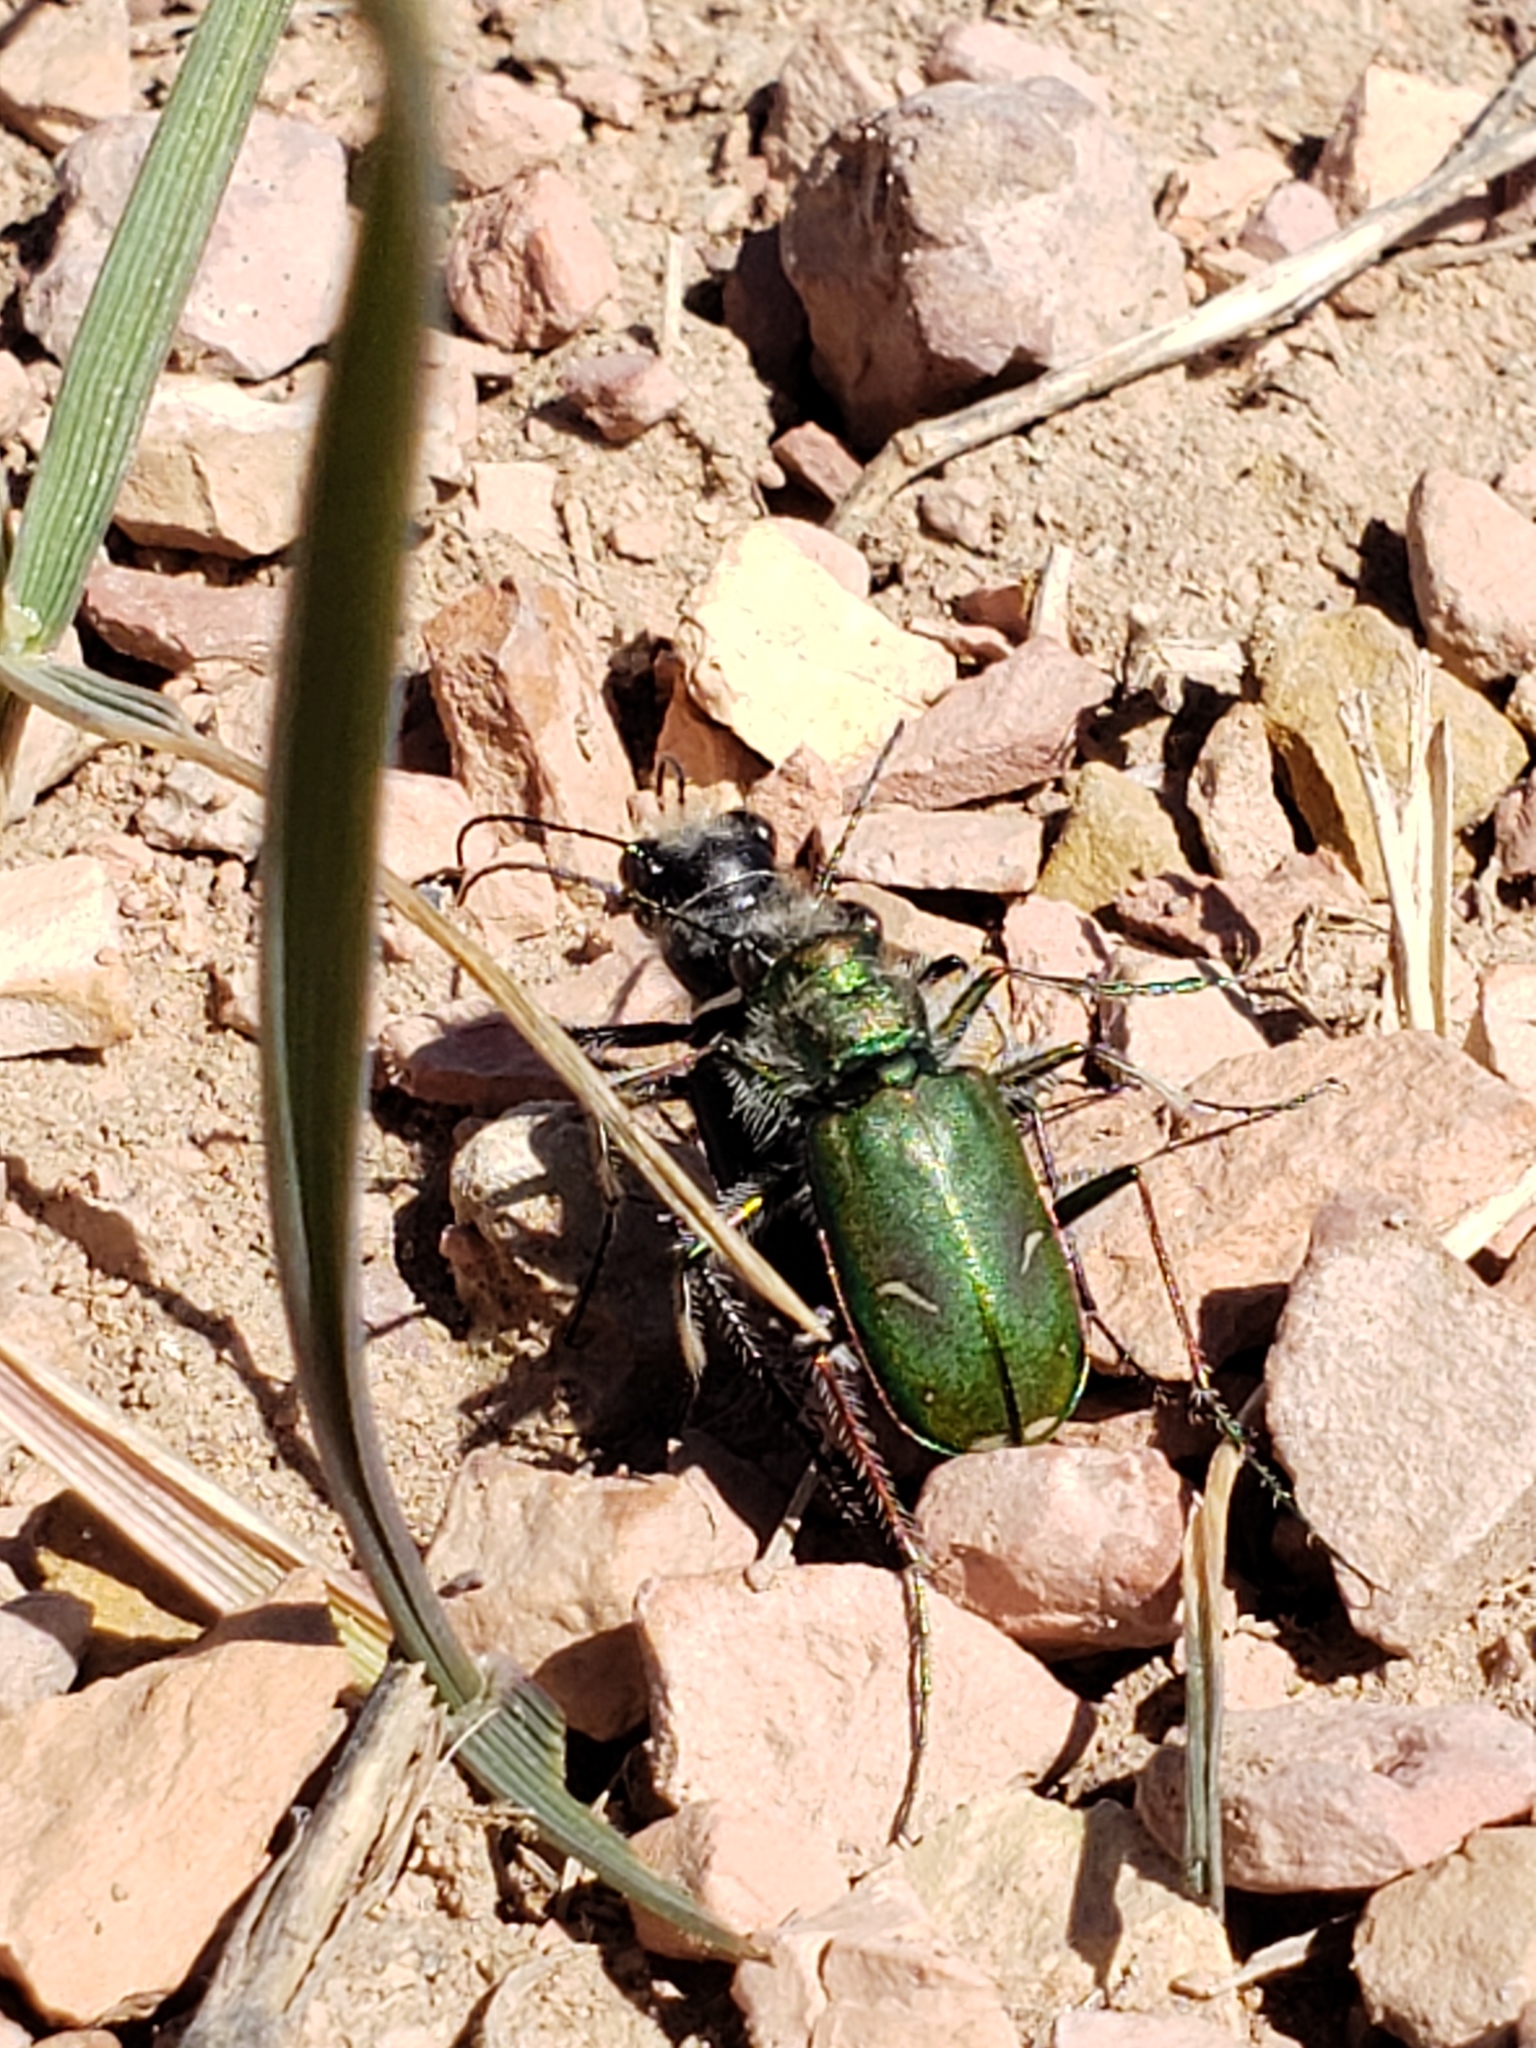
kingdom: Animalia
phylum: Arthropoda
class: Insecta
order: Coleoptera
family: Carabidae
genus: Cicindela
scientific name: Cicindela purpurea
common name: Cow path tiger beetle
